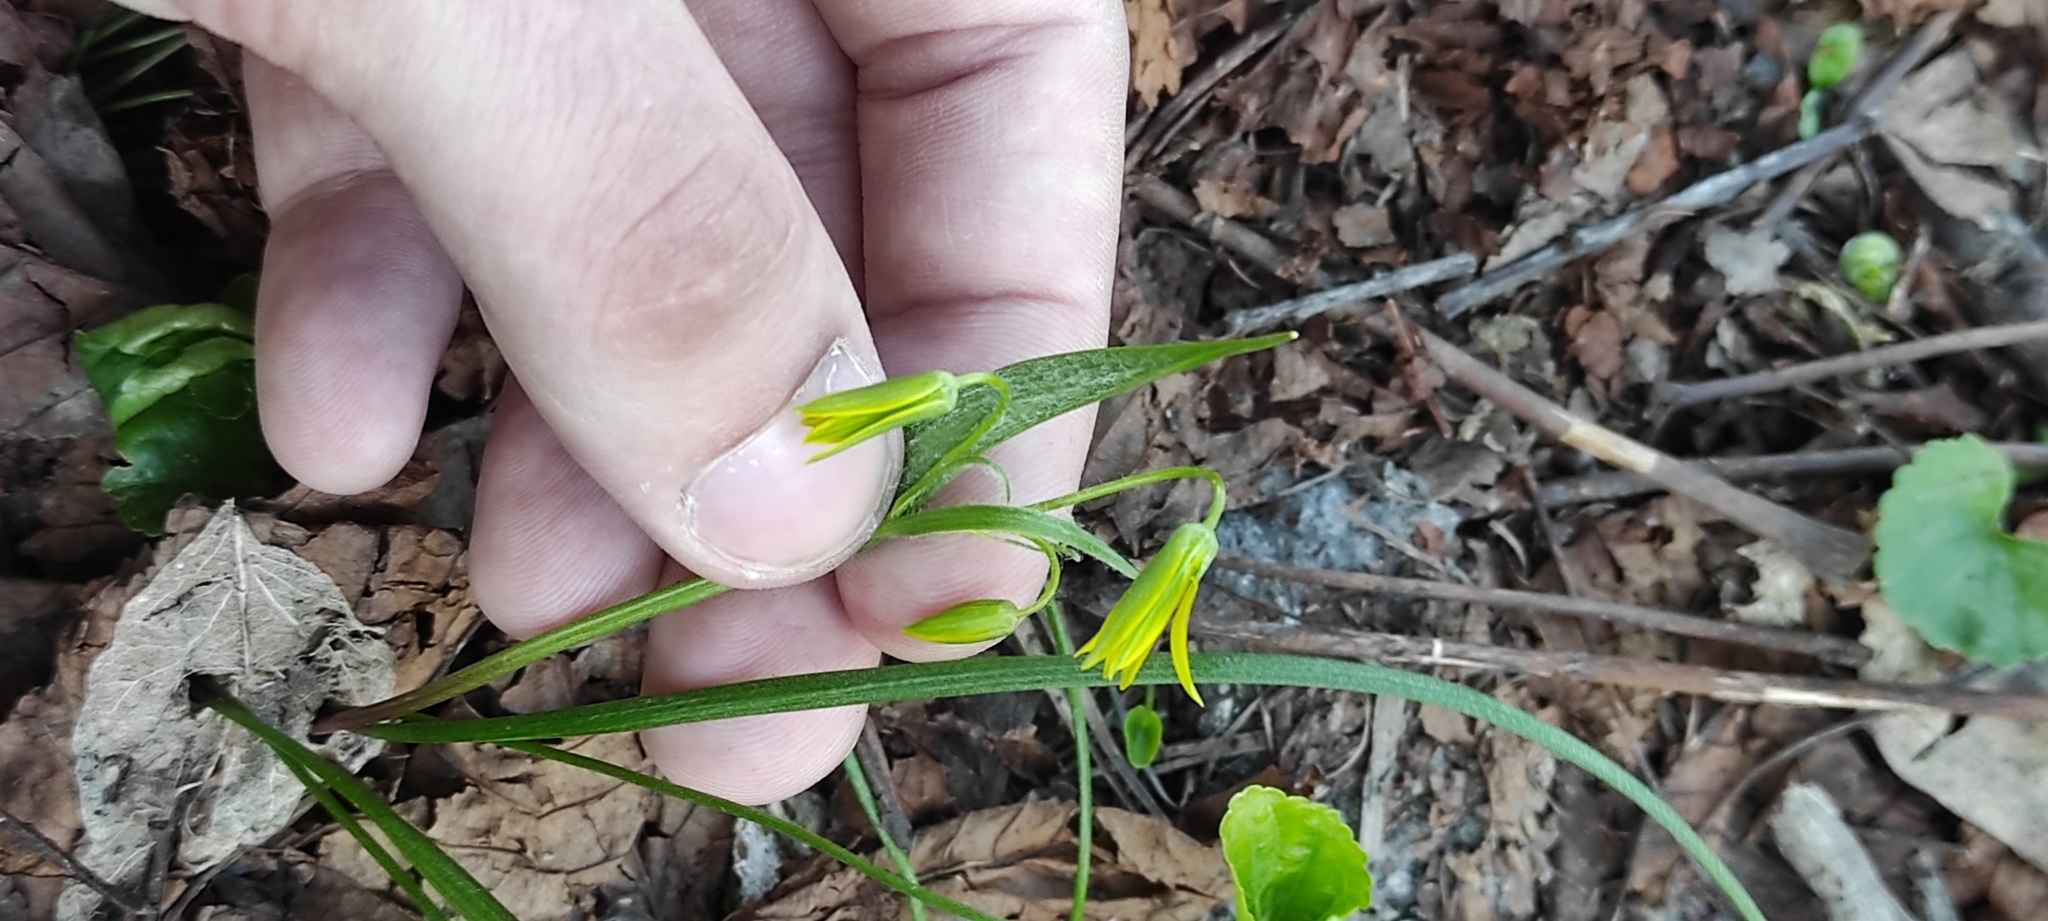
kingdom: Plantae
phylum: Tracheophyta
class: Liliopsida
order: Liliales
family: Liliaceae
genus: Gagea
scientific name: Gagea minima
